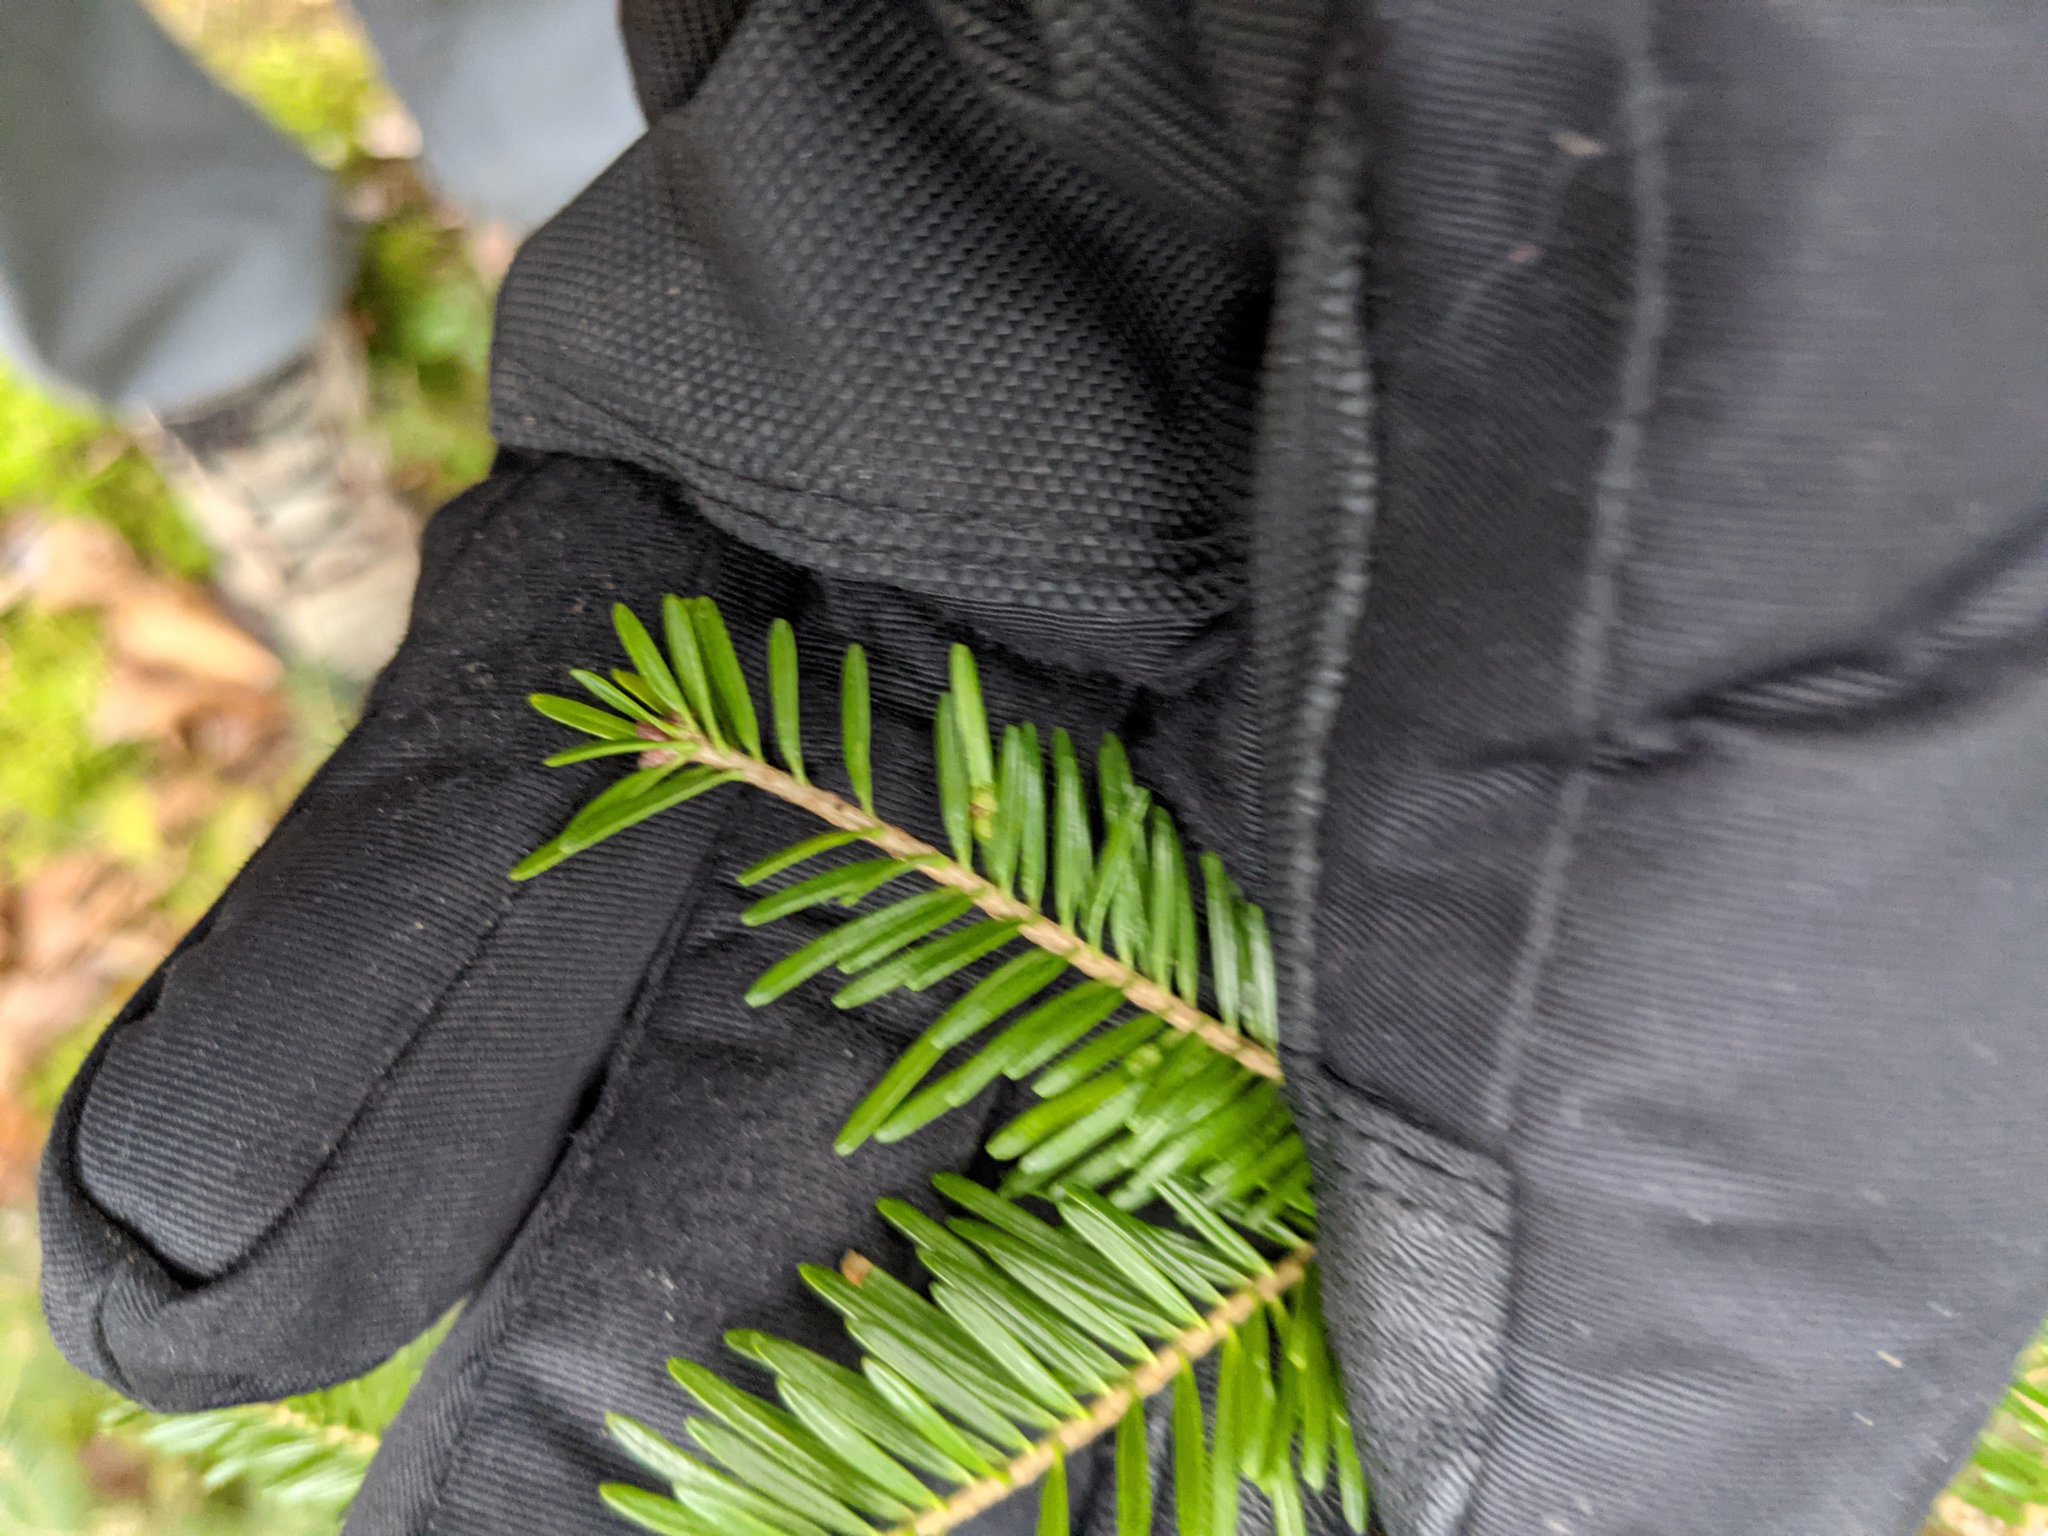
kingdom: Animalia
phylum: Arthropoda
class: Insecta
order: Diptera
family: Cecidomyiidae
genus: Paradiplosis
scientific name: Paradiplosis tumifex
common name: Gall midge
